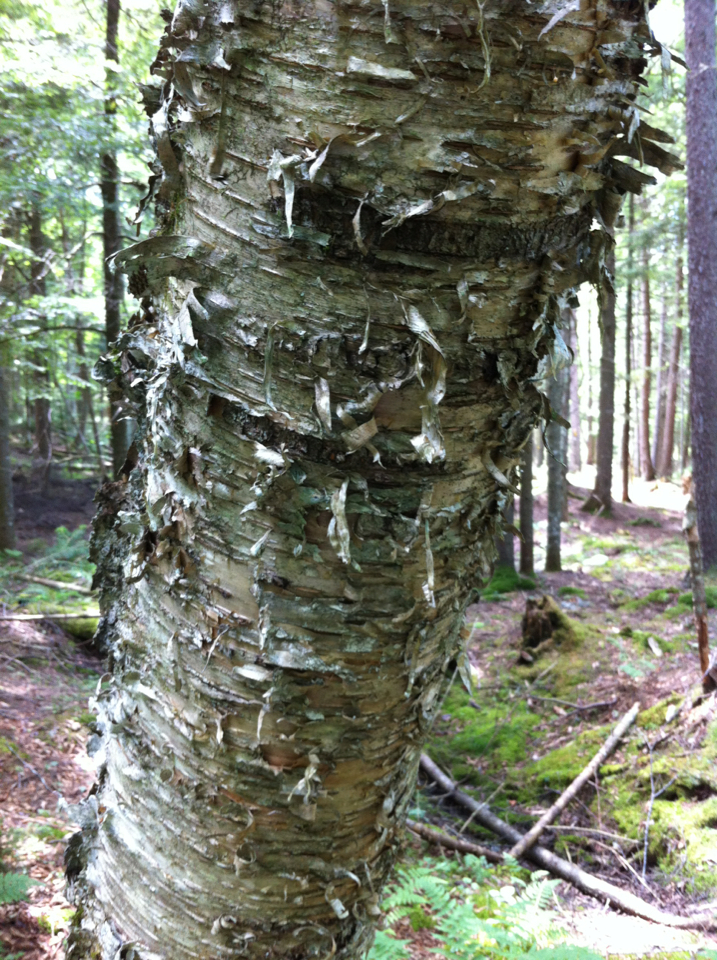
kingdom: Plantae
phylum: Tracheophyta
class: Magnoliopsida
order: Fagales
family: Betulaceae
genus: Betula
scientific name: Betula alleghaniensis
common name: Yellow birch
